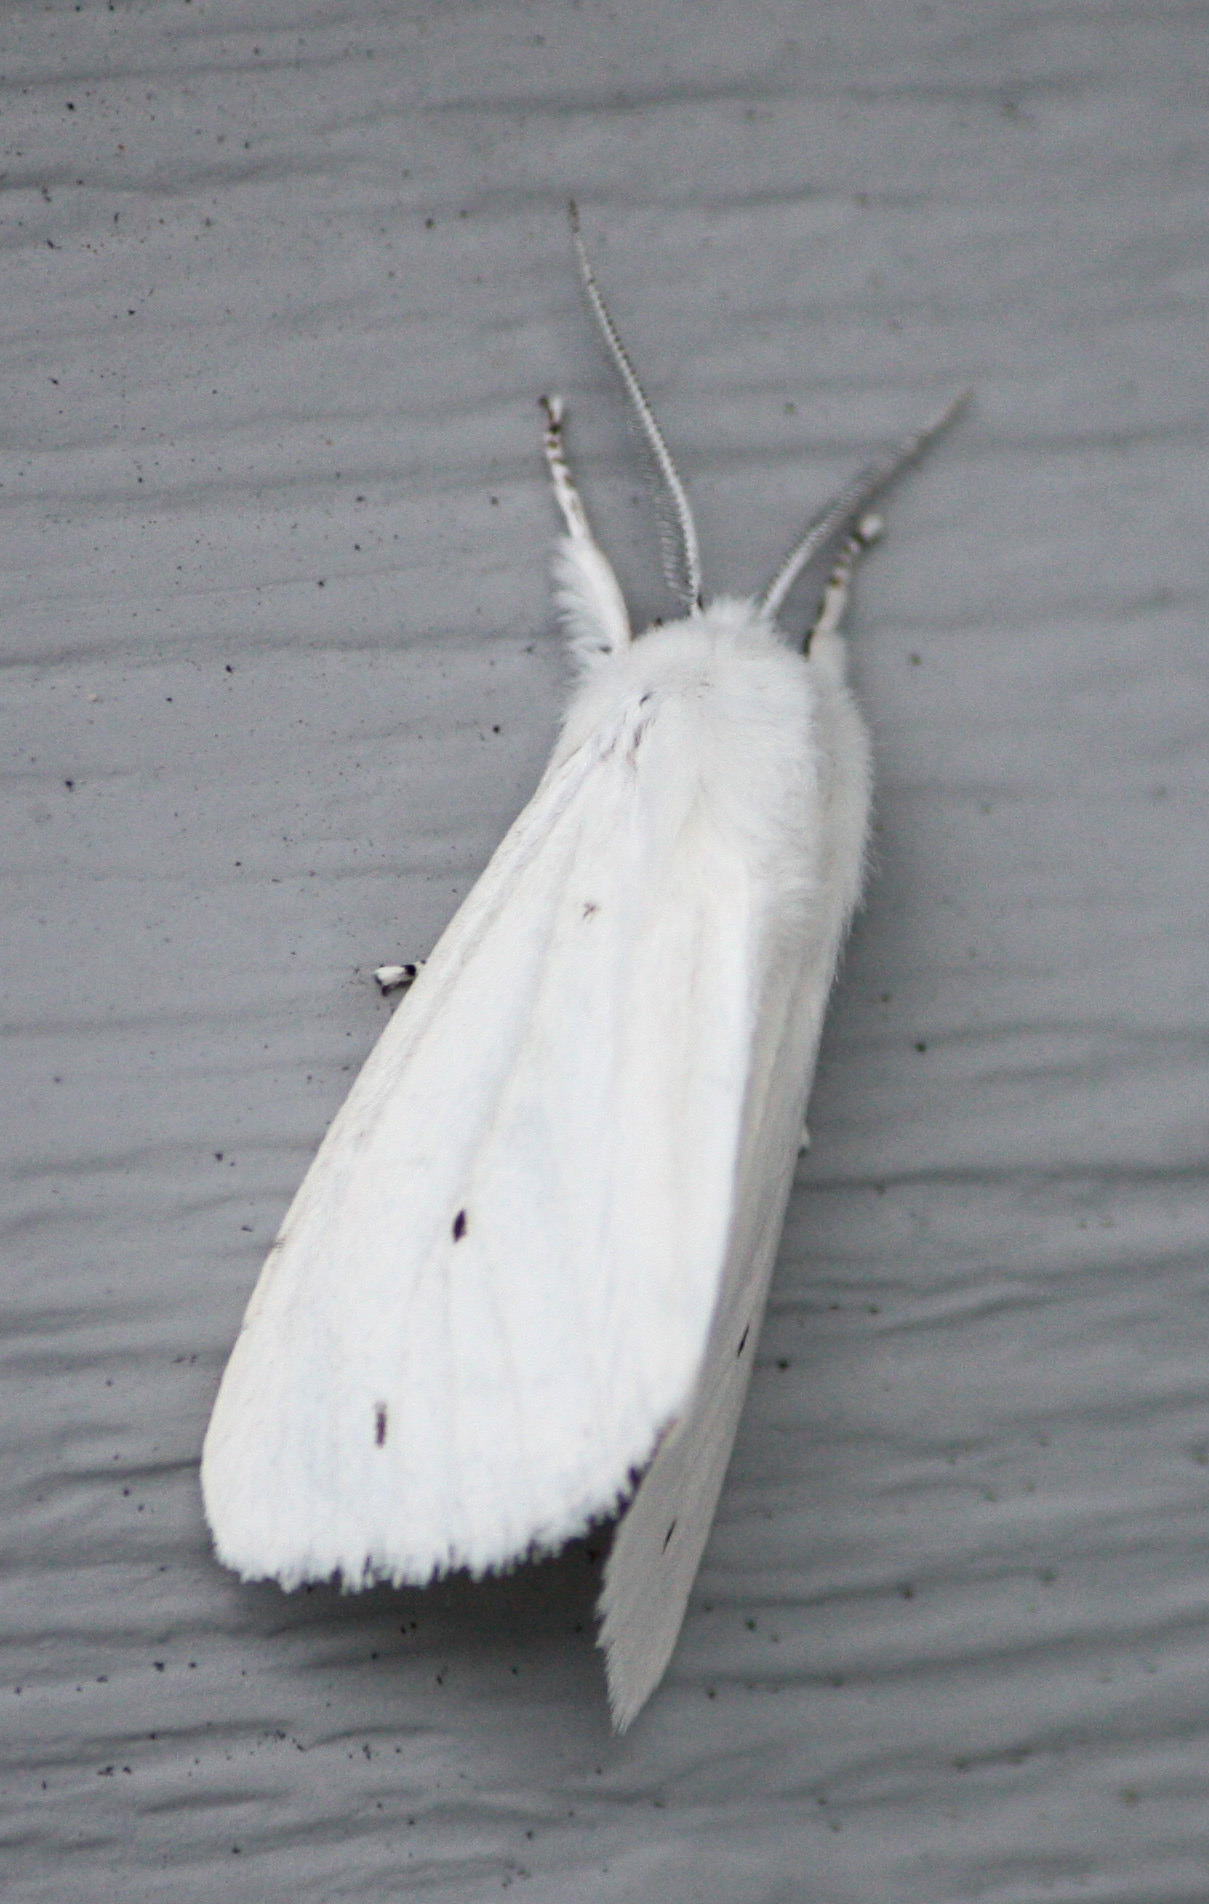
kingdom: Animalia
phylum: Arthropoda
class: Insecta
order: Lepidoptera
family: Erebidae
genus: Spilosoma
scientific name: Spilosoma virginica
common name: Virginia tiger moth
